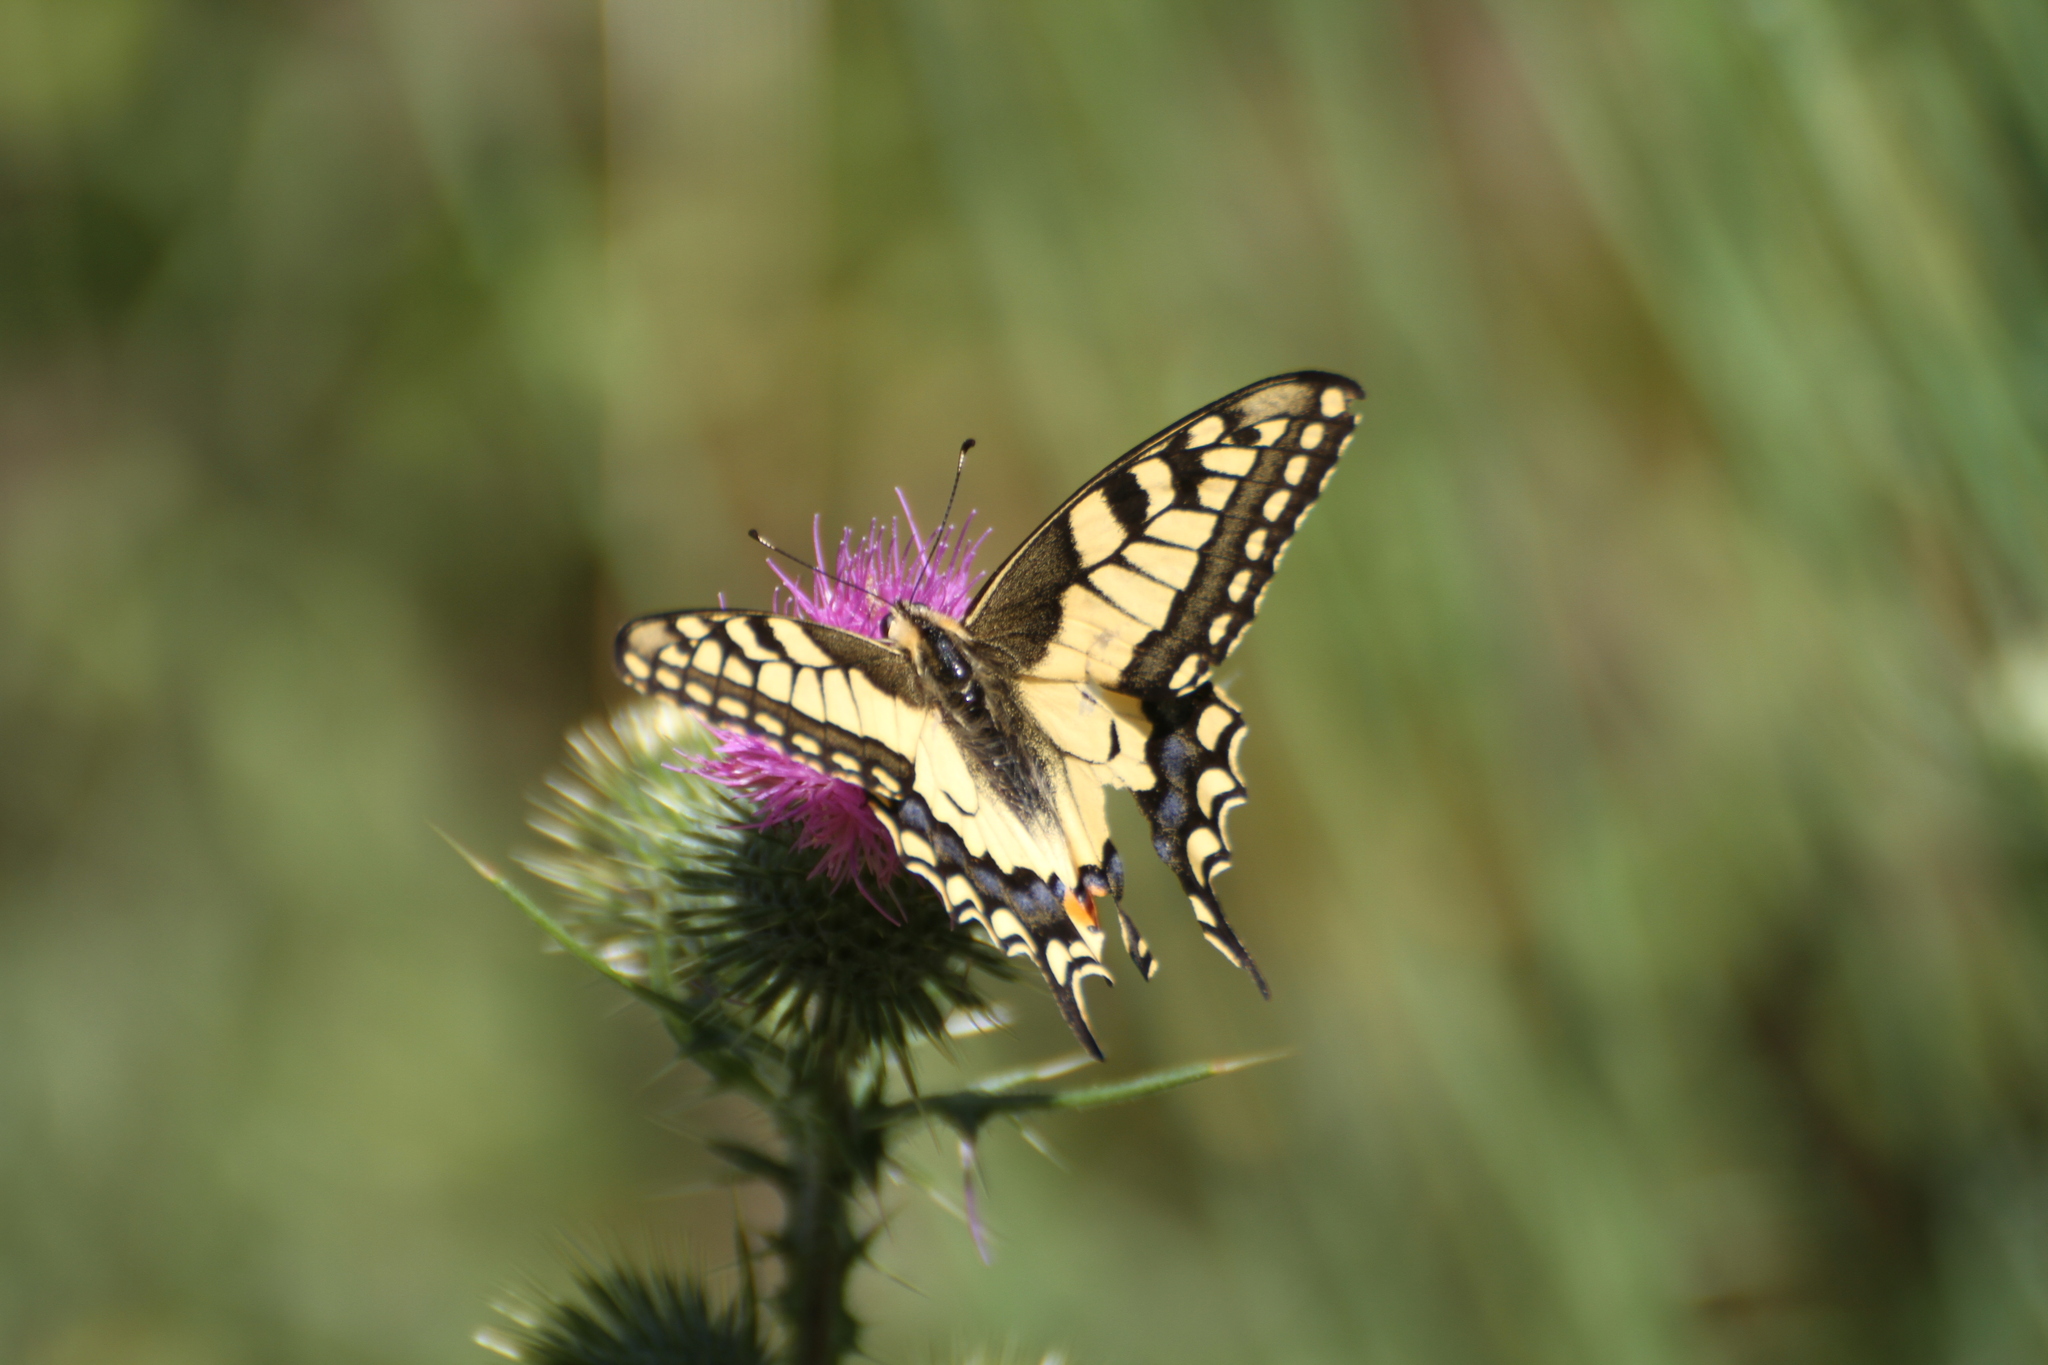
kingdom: Animalia
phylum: Arthropoda
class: Insecta
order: Lepidoptera
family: Papilionidae
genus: Papilio
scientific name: Papilio machaon
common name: Swallowtail
